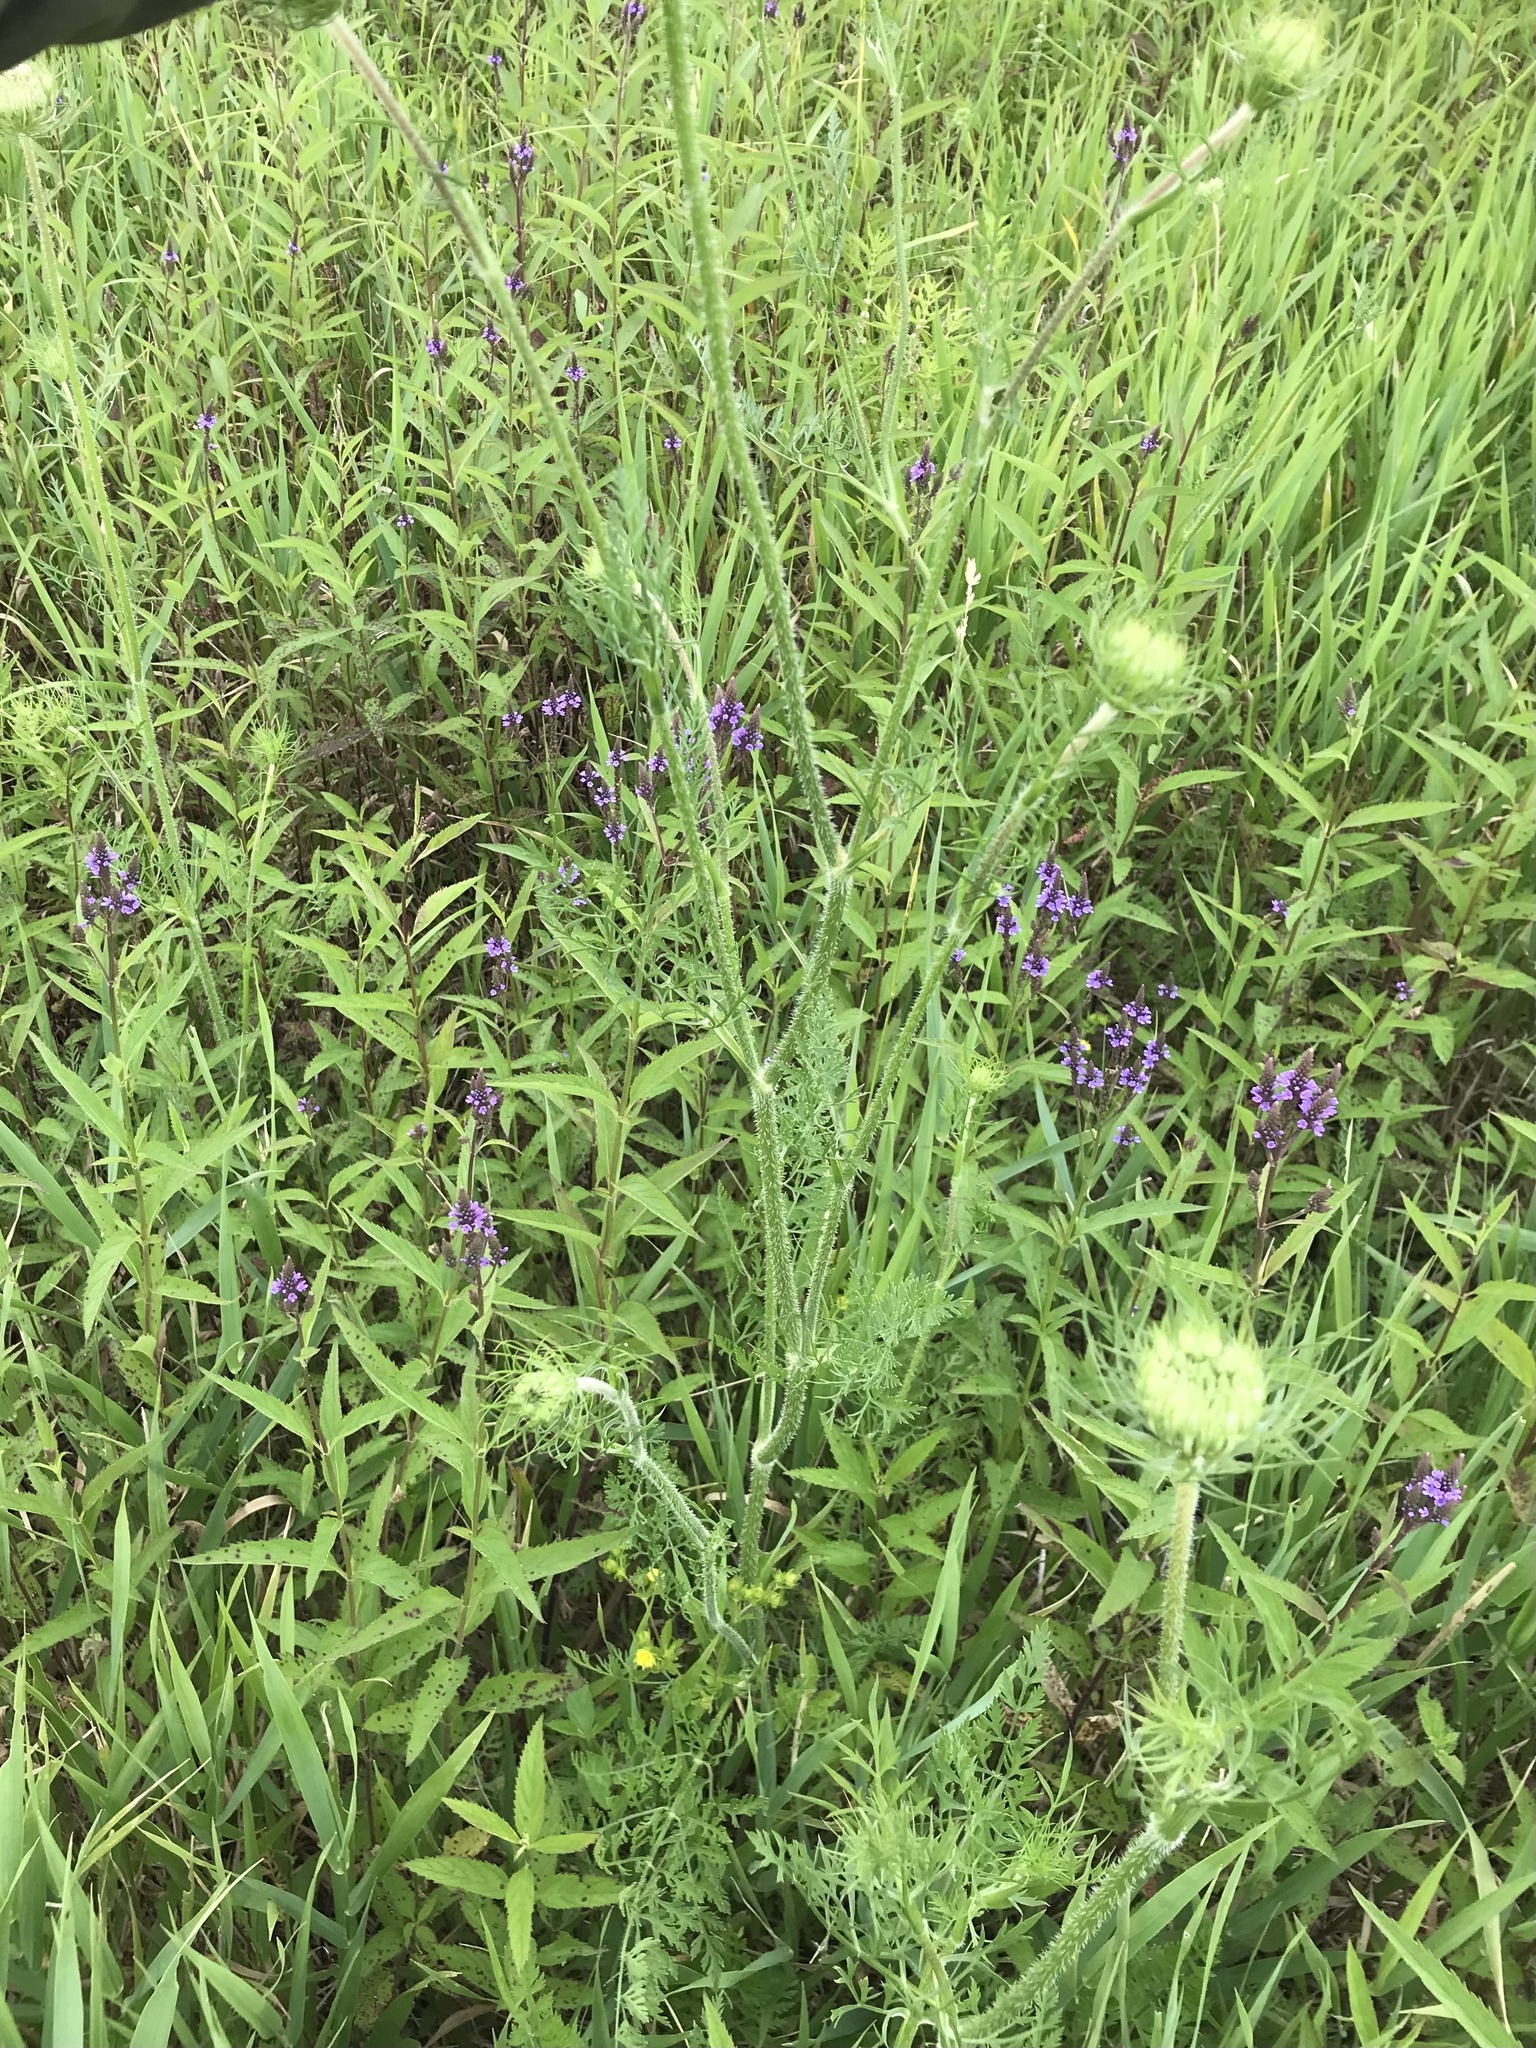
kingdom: Plantae
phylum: Tracheophyta
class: Magnoliopsida
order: Apiales
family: Apiaceae
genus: Daucus
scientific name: Daucus carota
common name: Wild carrot
